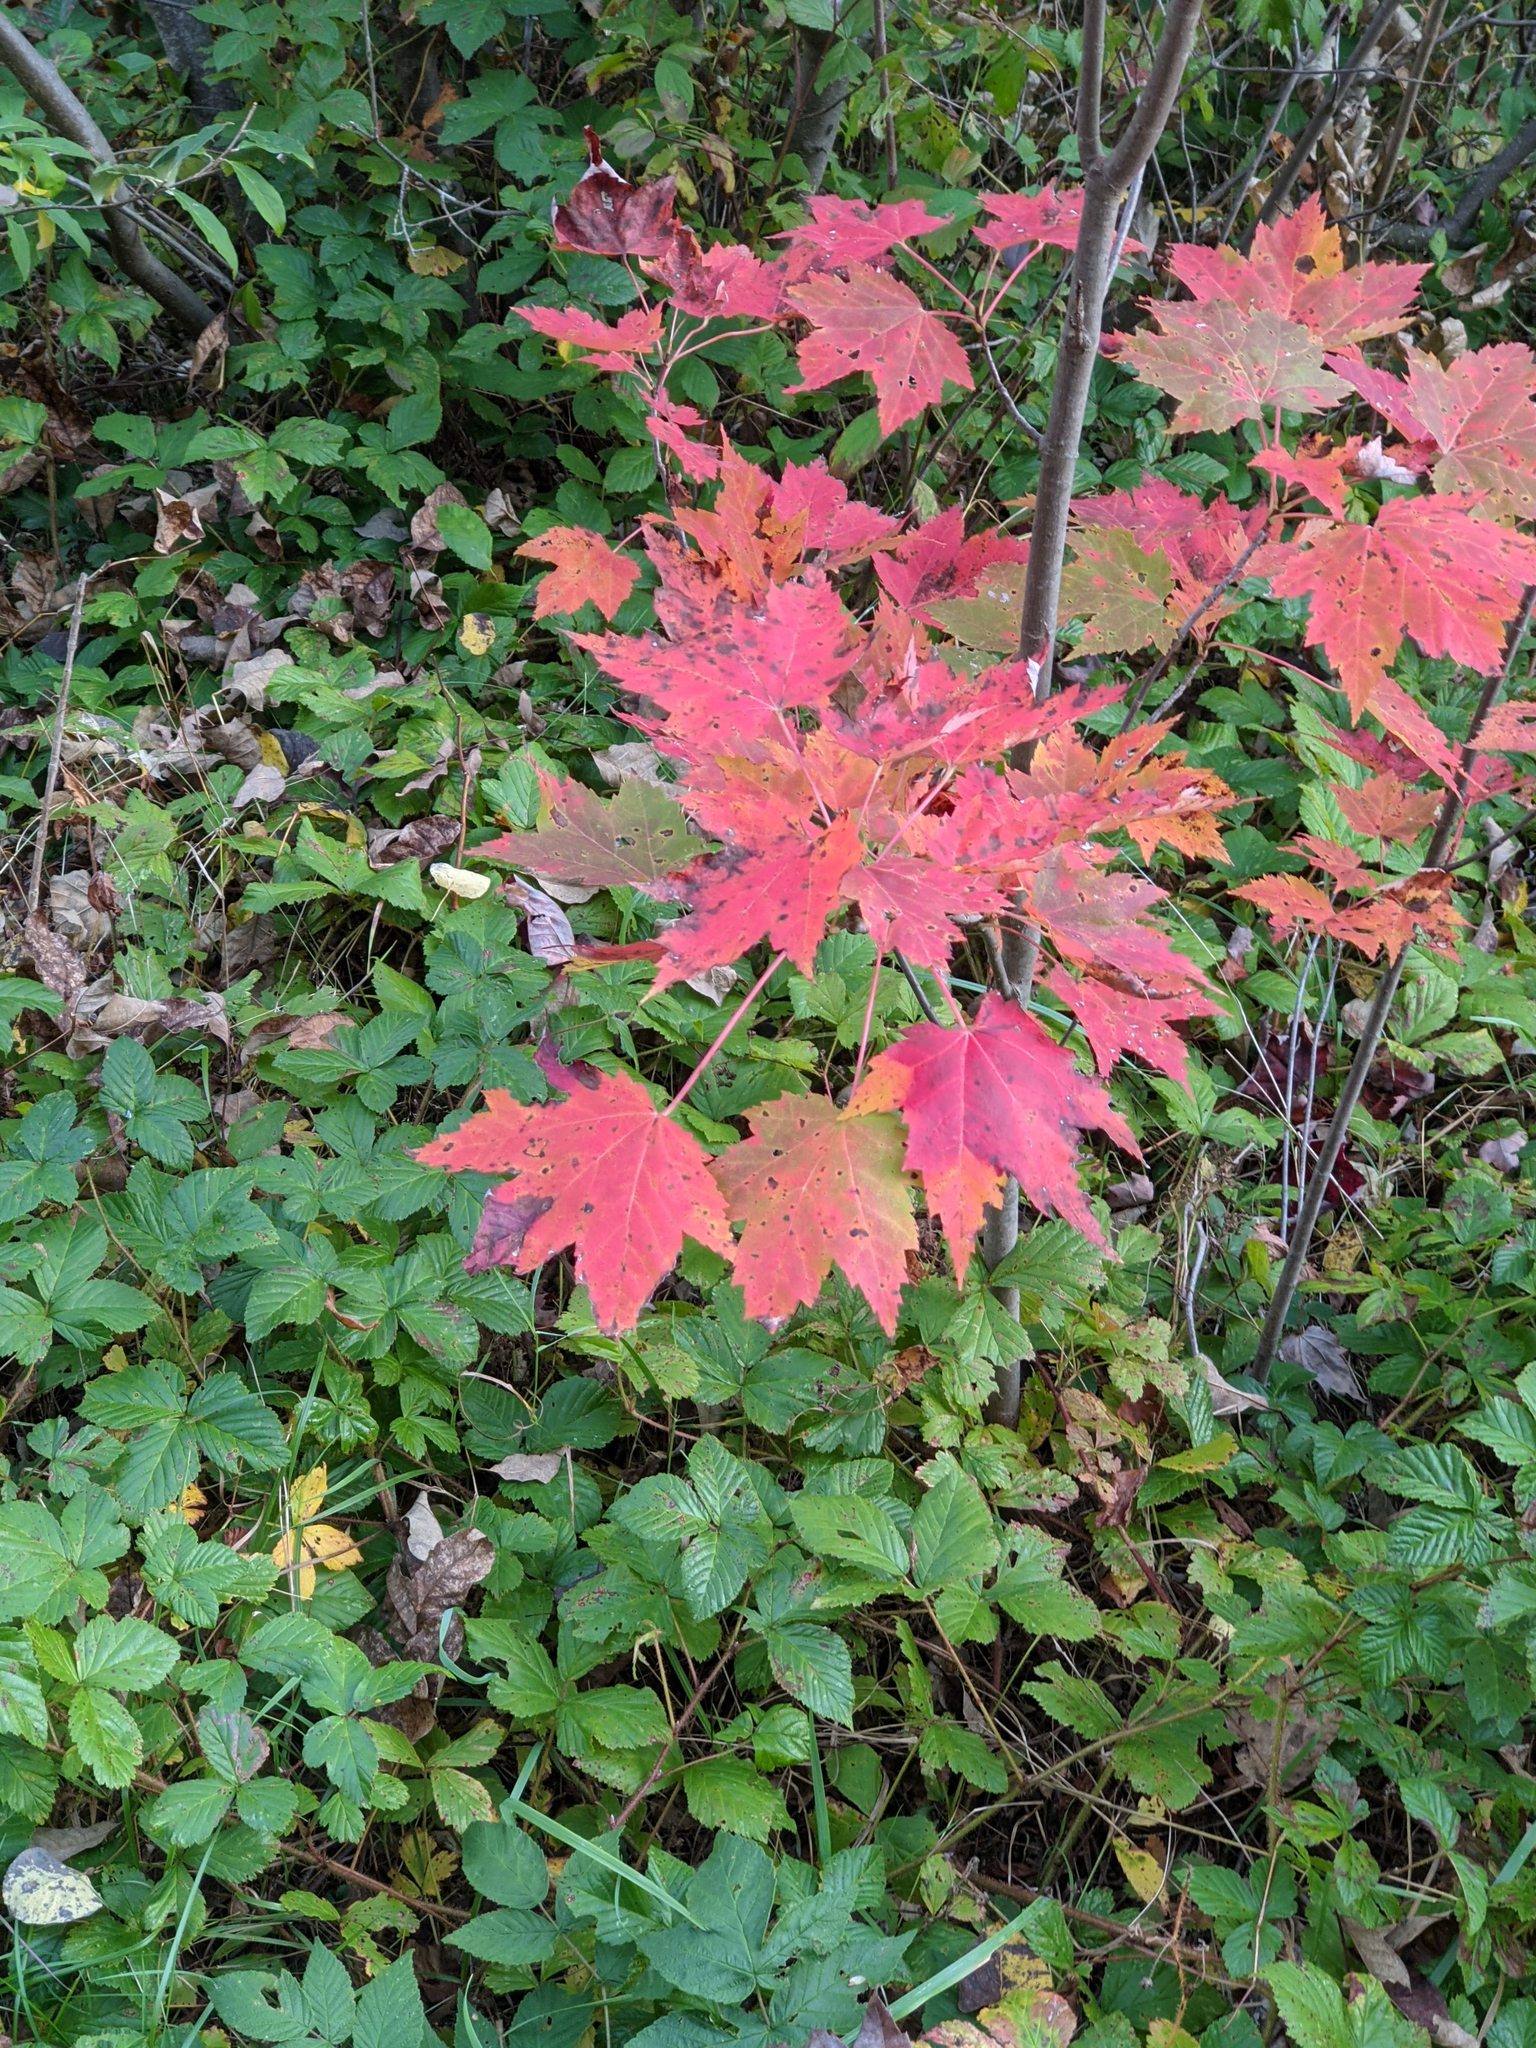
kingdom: Plantae
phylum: Tracheophyta
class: Magnoliopsida
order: Sapindales
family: Sapindaceae
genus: Acer
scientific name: Acer rubrum
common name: Red maple
